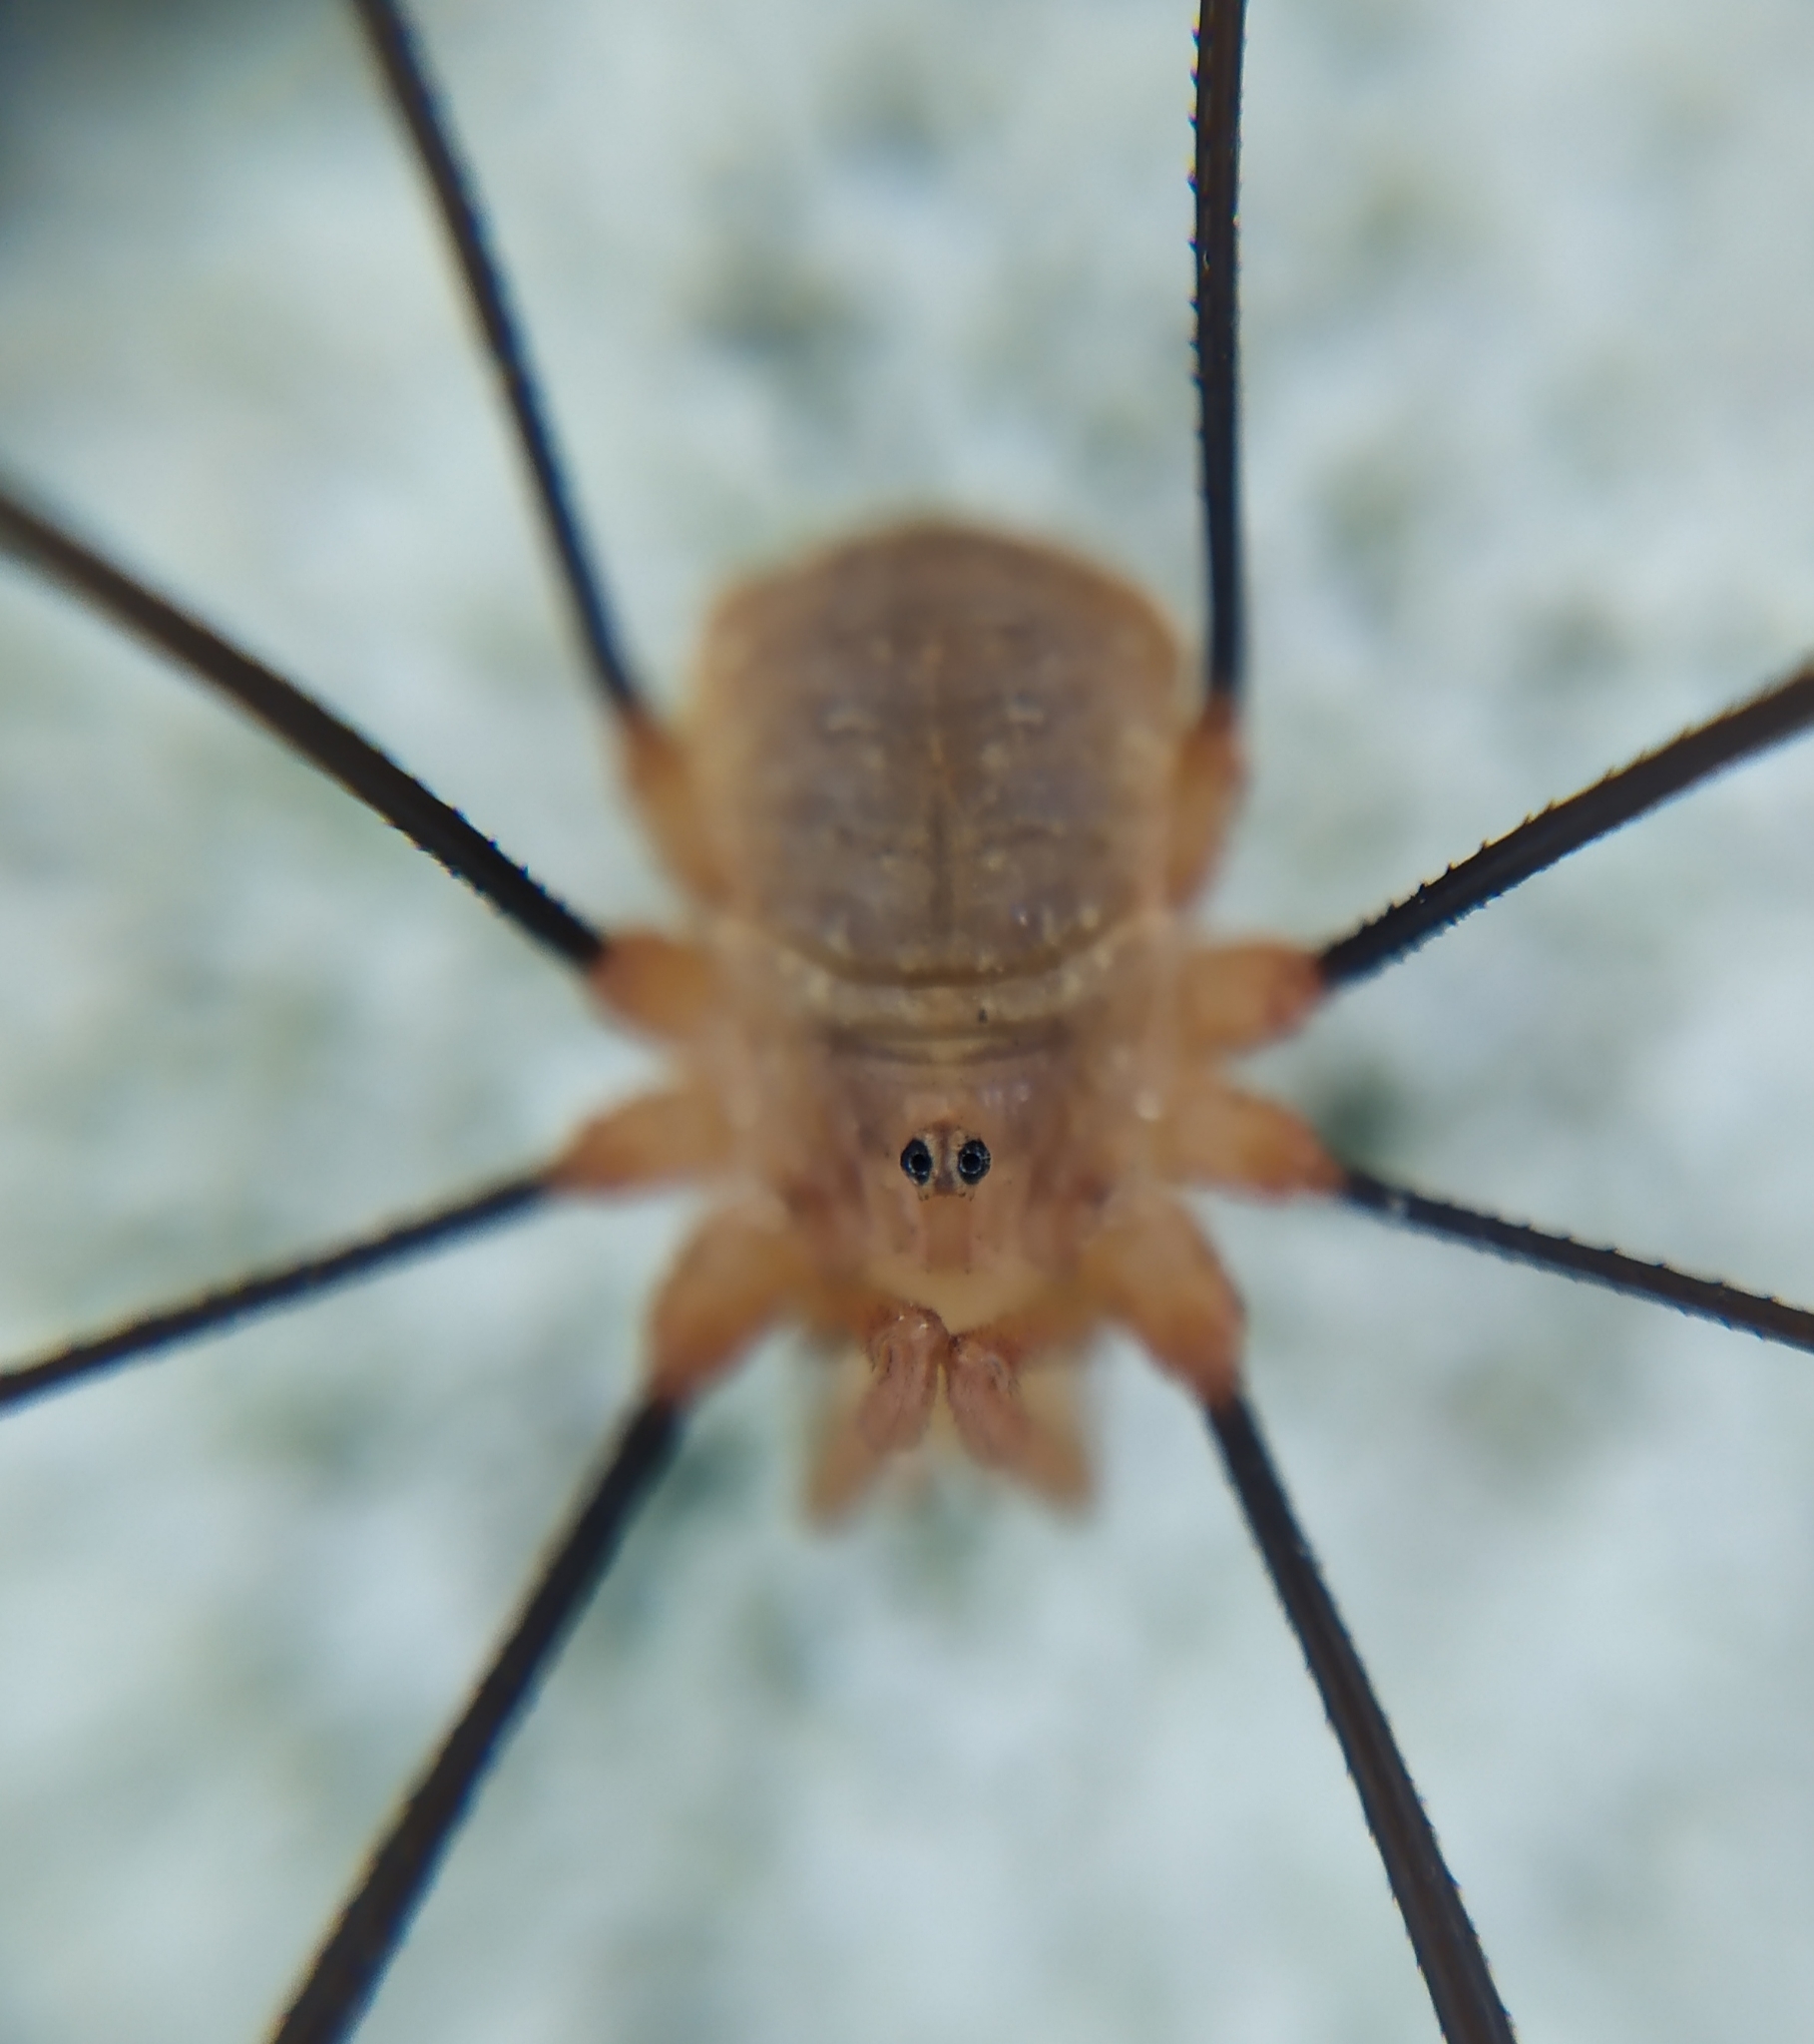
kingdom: Animalia
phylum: Arthropoda
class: Arachnida
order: Opiliones
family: Phalangiidae
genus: Opilio
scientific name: Opilio canestrinii
